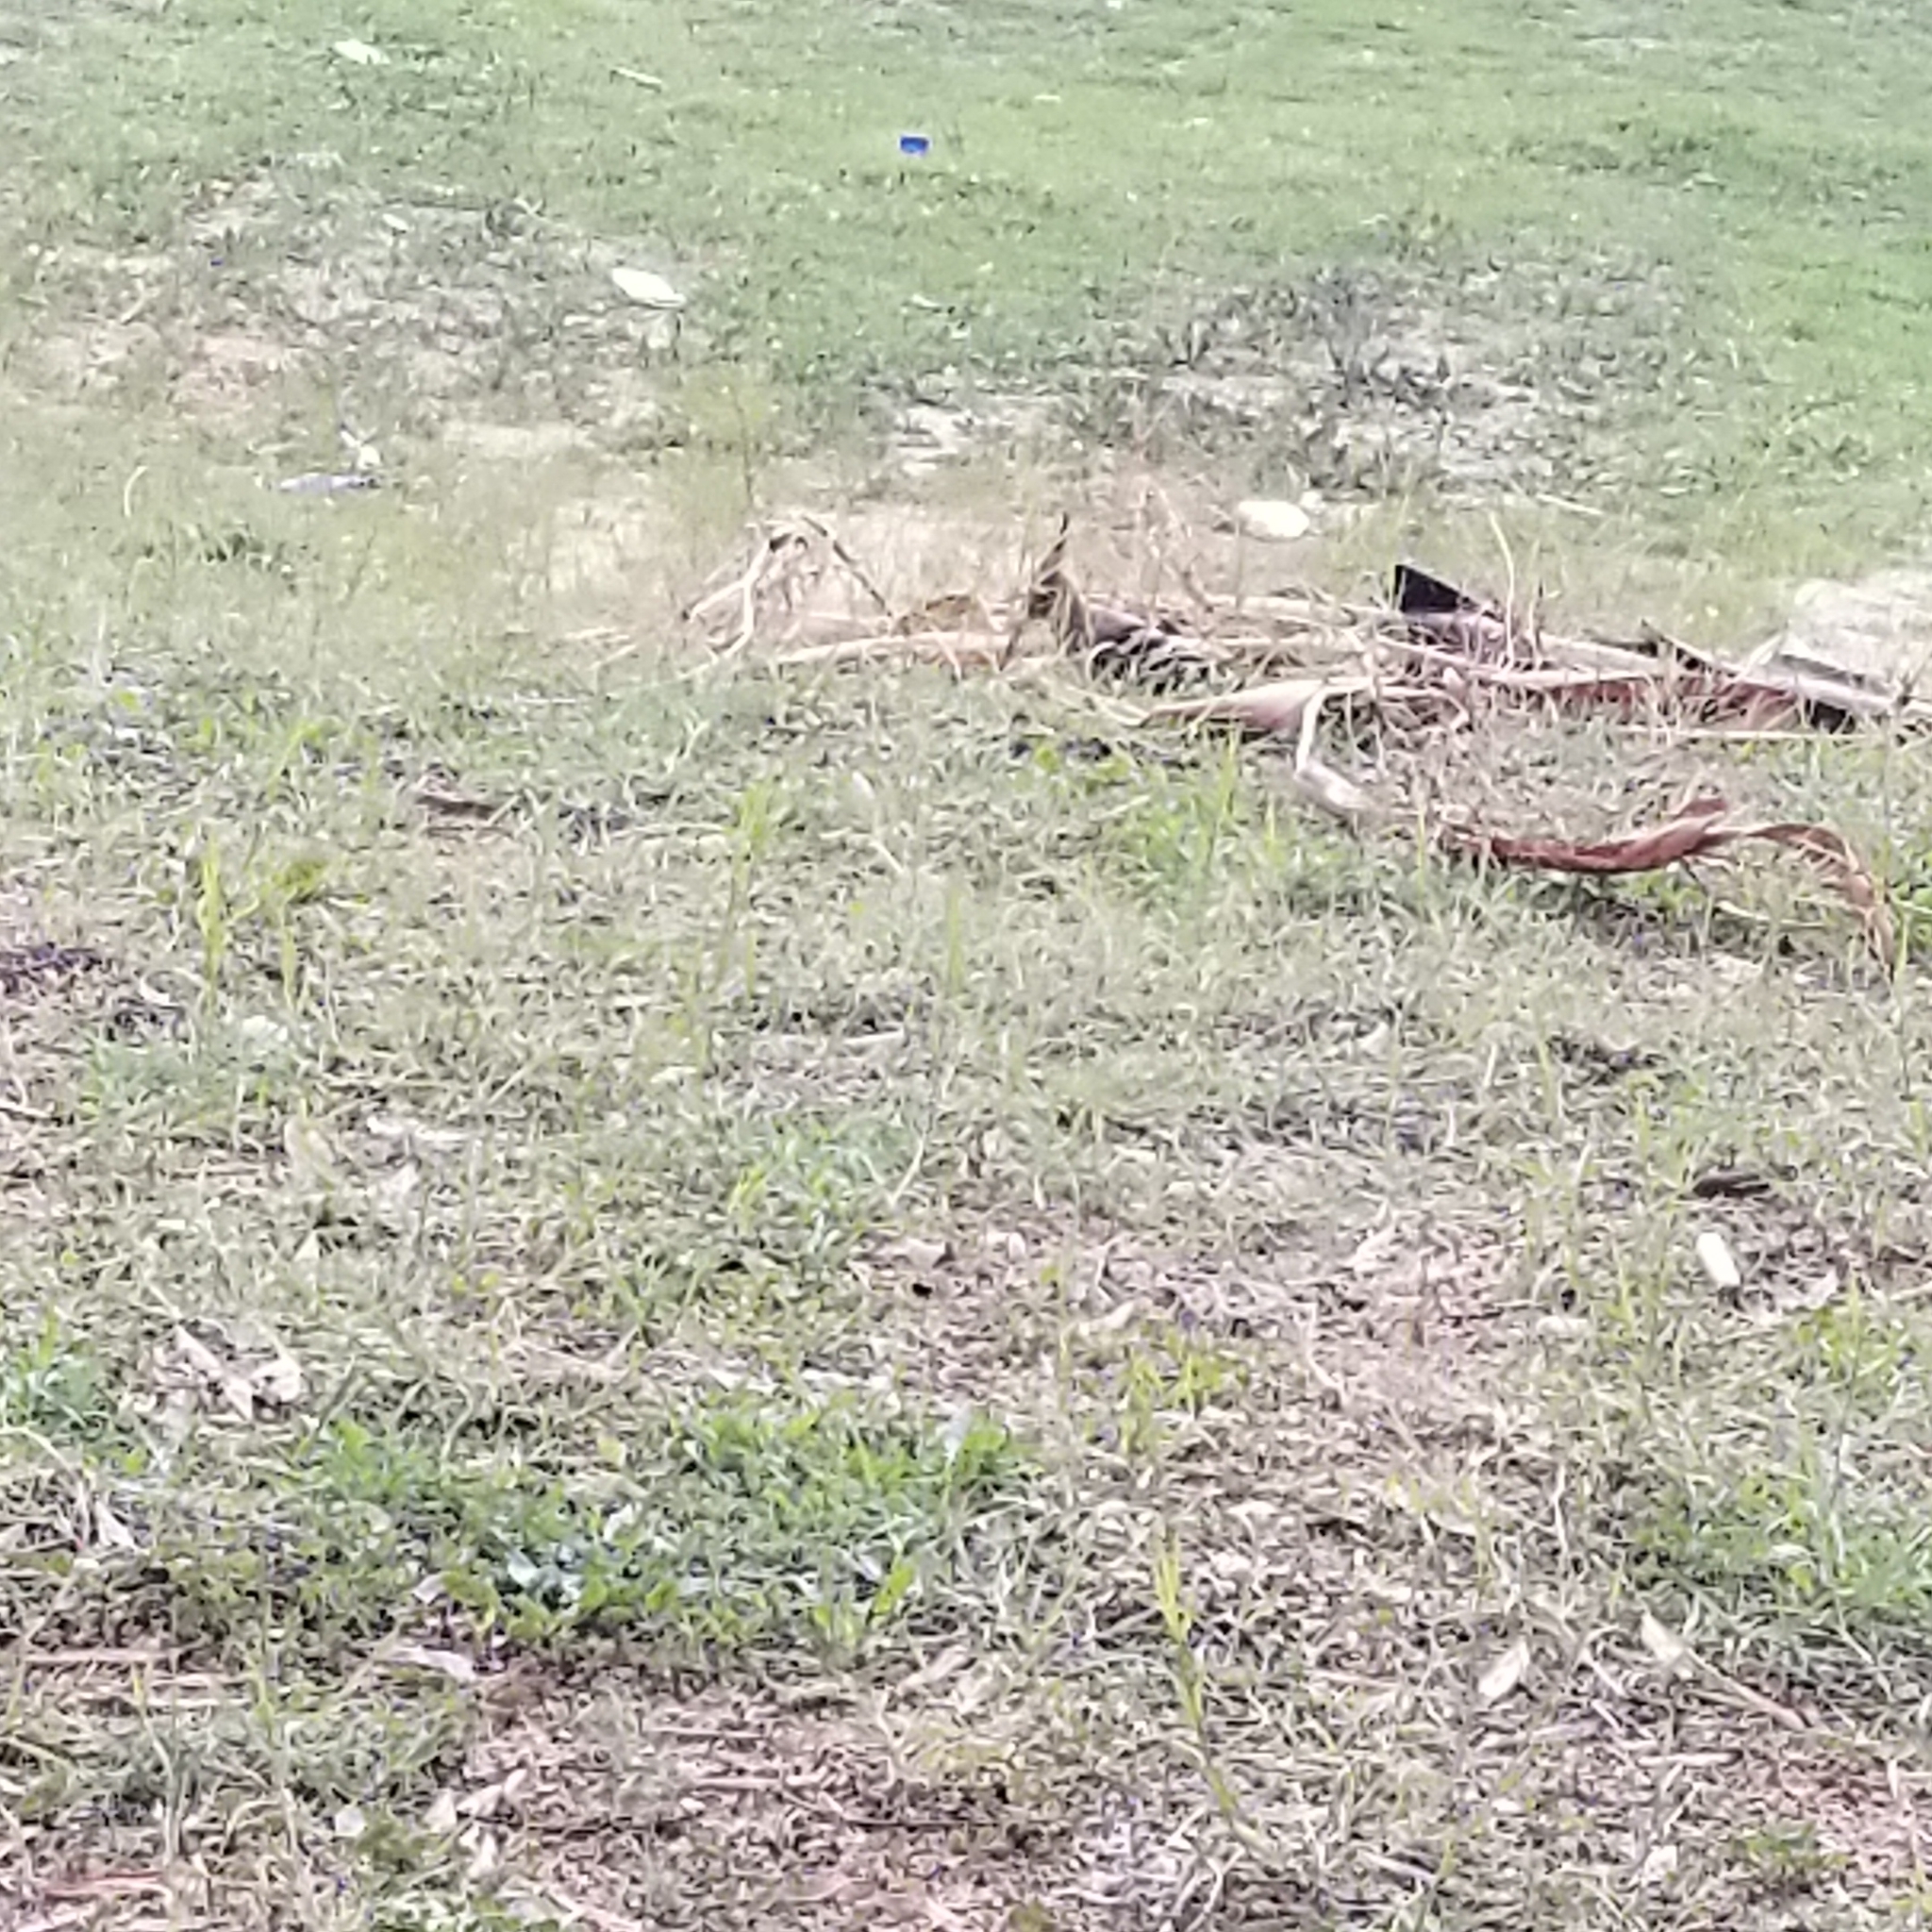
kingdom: Animalia
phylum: Chordata
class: Aves
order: Bucerotiformes
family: Upupidae
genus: Upupa
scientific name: Upupa epops
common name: Eurasian hoopoe
